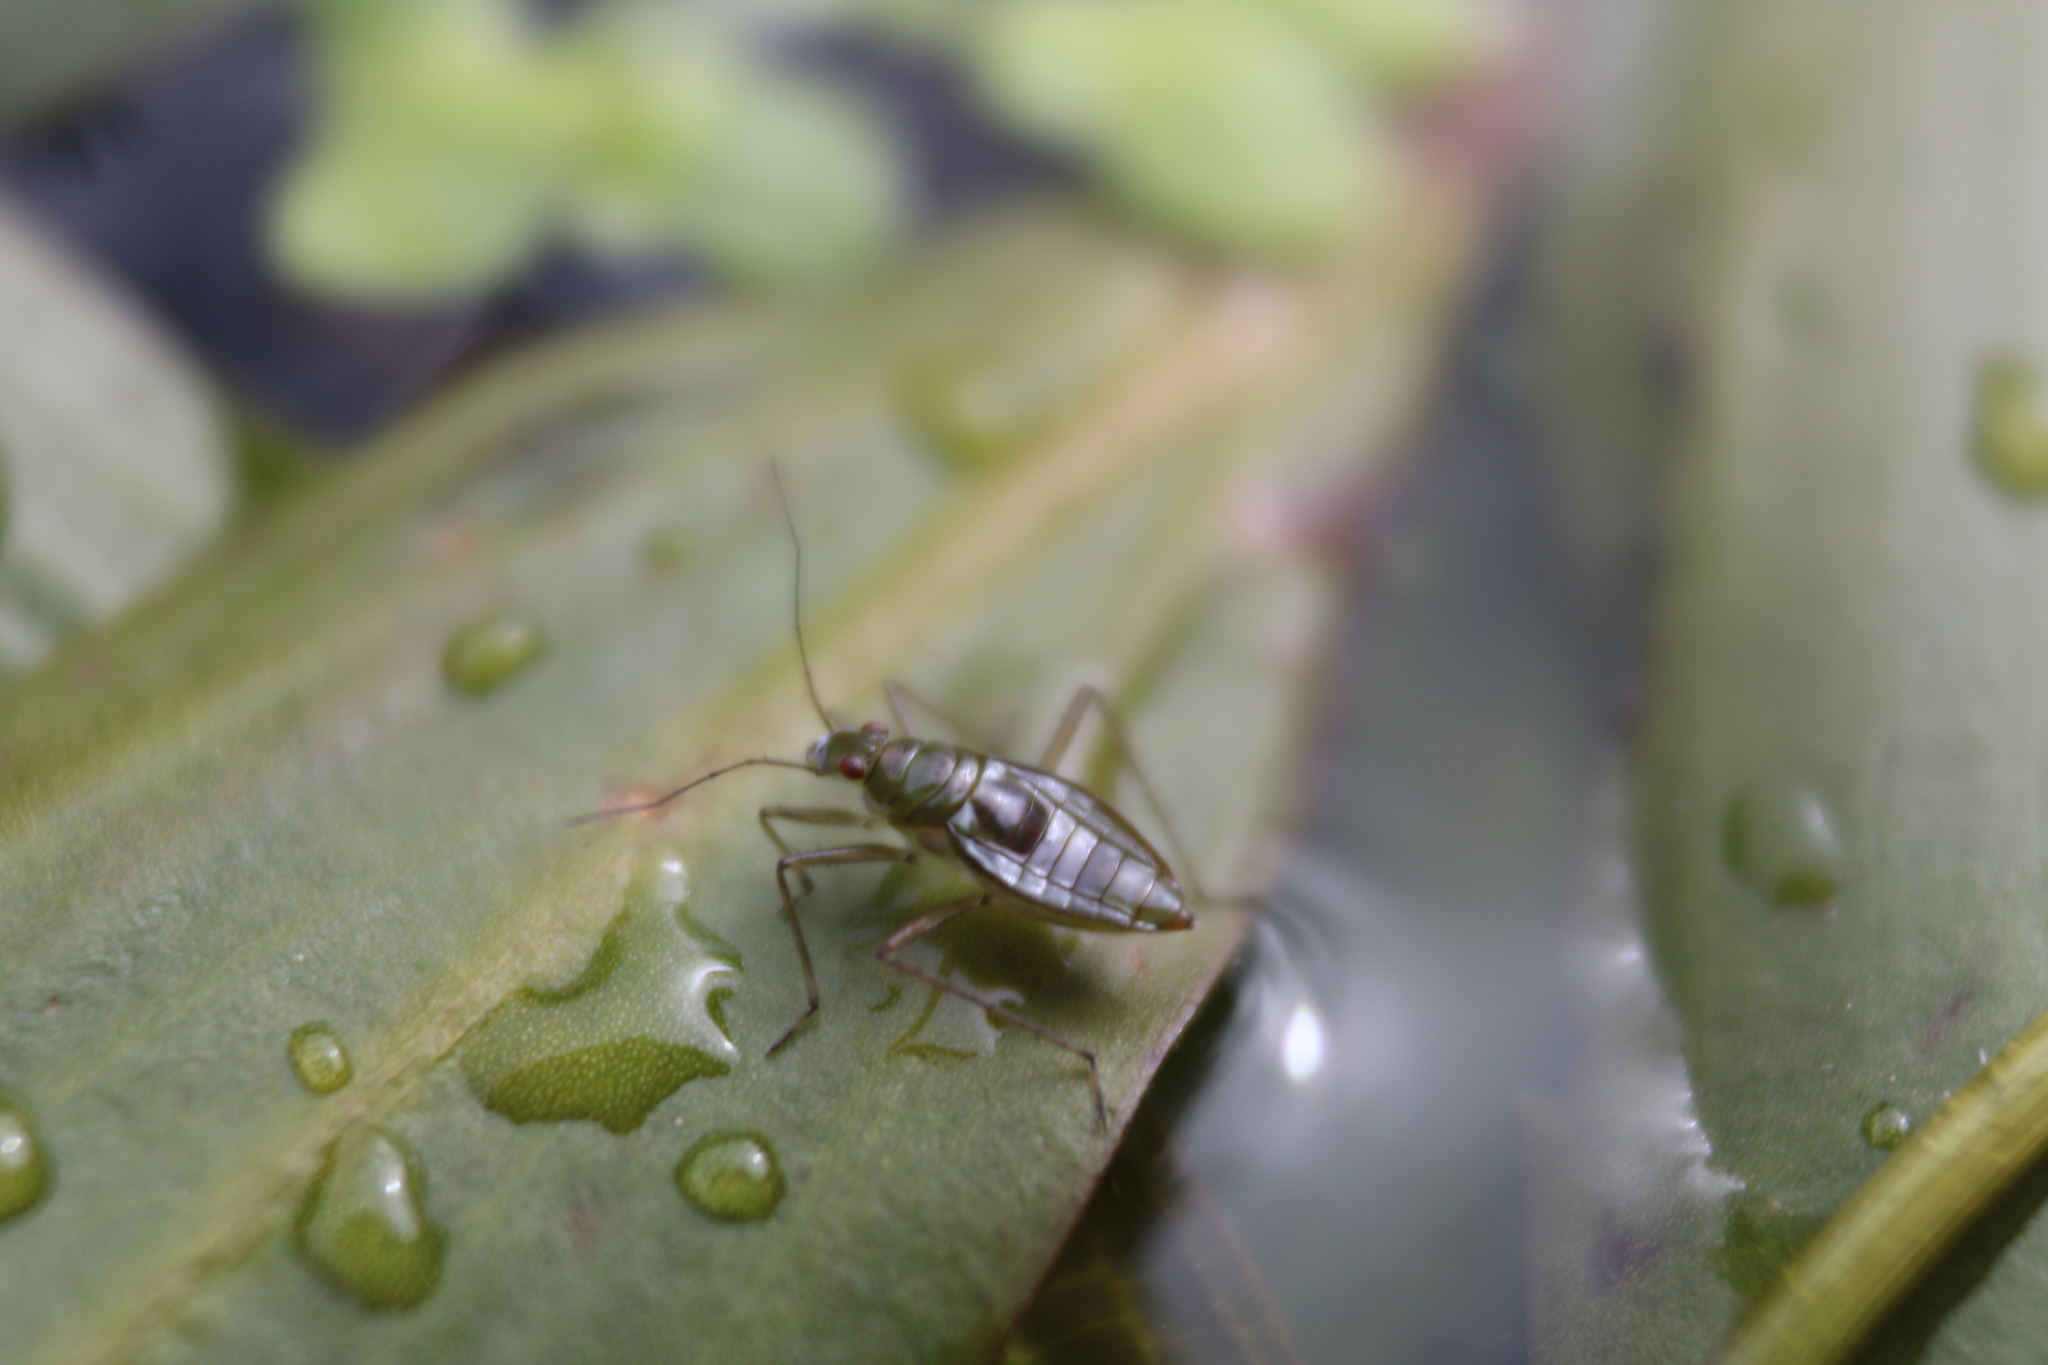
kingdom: Animalia
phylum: Arthropoda
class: Insecta
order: Hemiptera
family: Mesoveliidae
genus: Mesovelia
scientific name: Mesovelia mulsanti
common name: Water treaders
